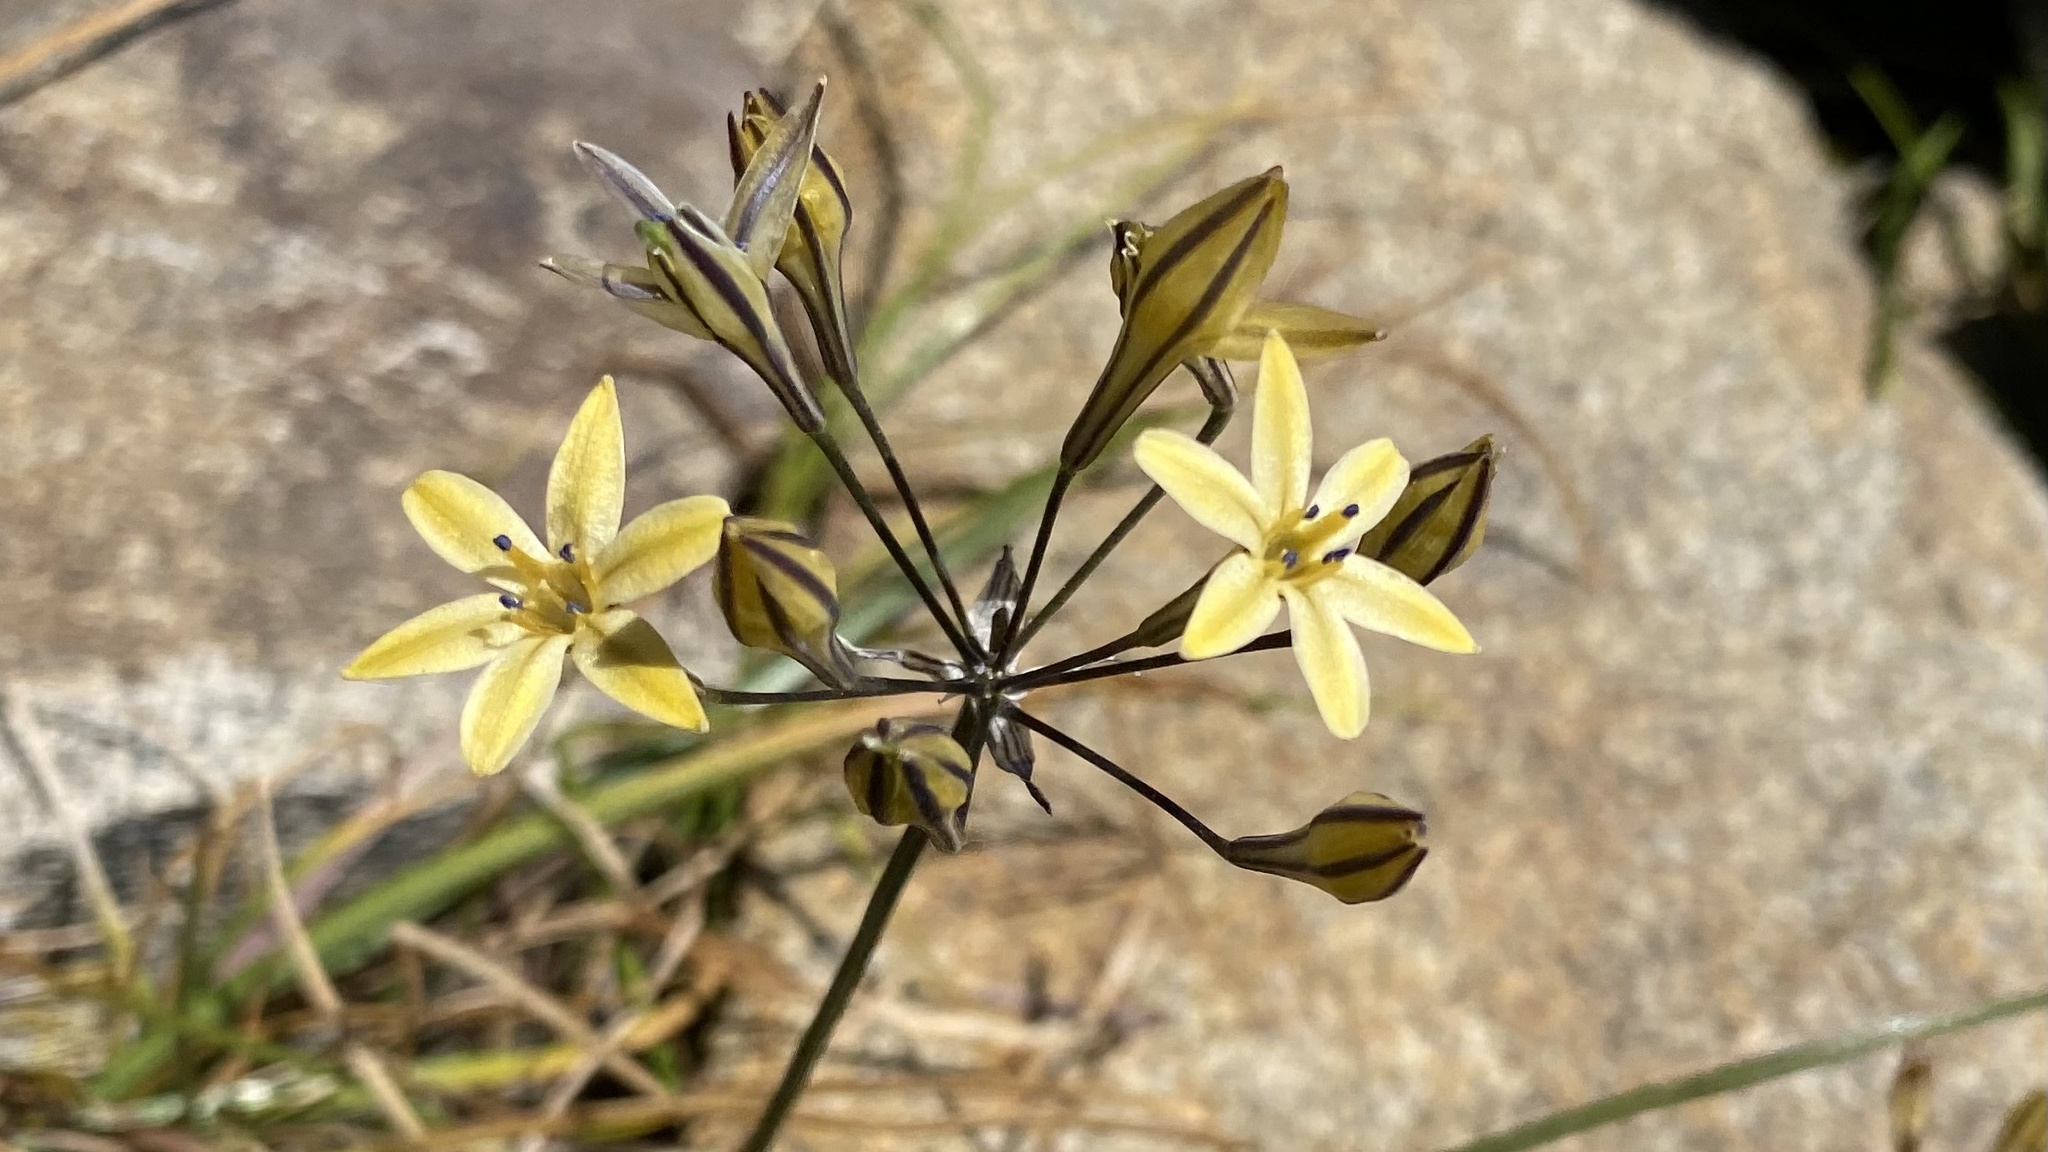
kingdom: Plantae
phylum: Tracheophyta
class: Liliopsida
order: Asparagales
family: Asparagaceae
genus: Triteleia
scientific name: Triteleia dudleyi
